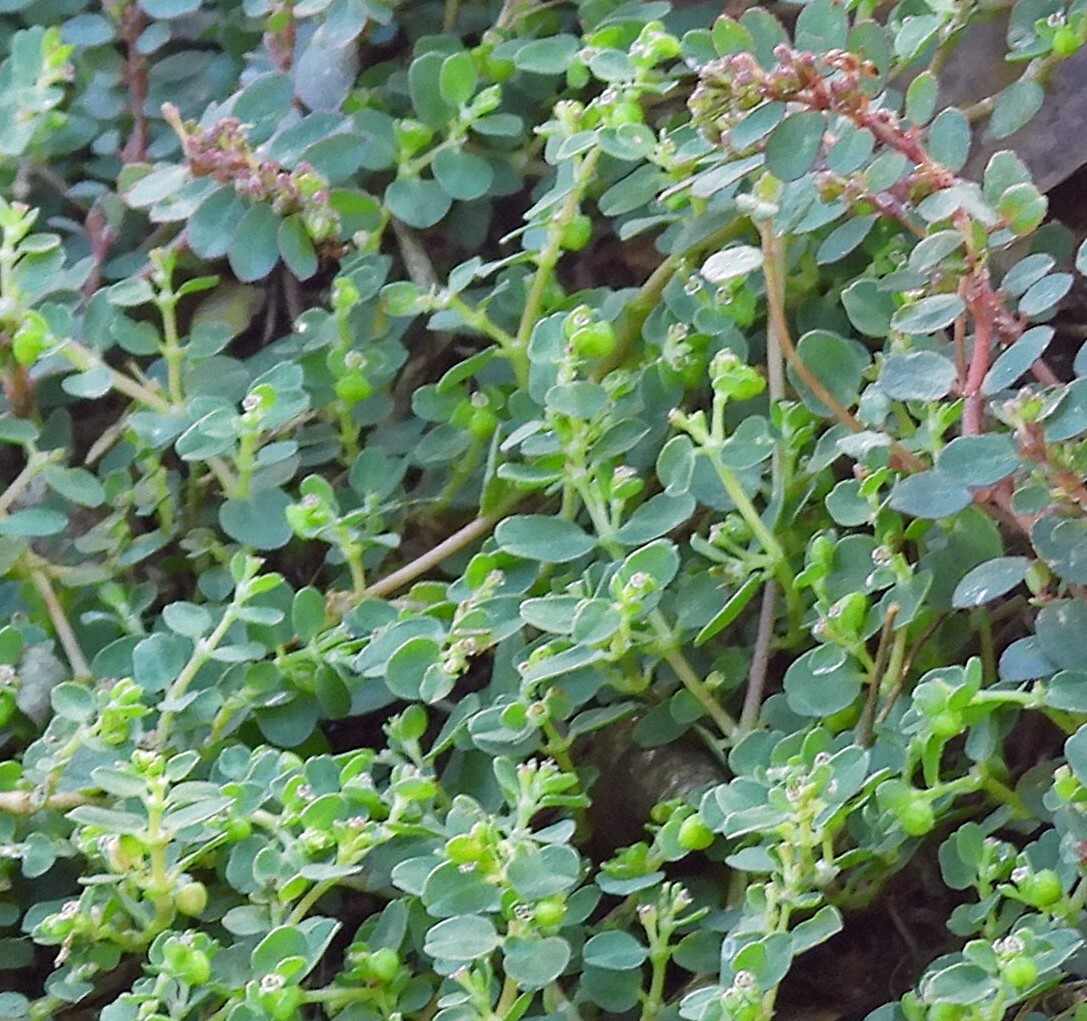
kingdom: Plantae
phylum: Tracheophyta
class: Magnoliopsida
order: Malpighiales
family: Euphorbiaceae
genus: Euphorbia
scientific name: Euphorbia serpens
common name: Matted sandmat
